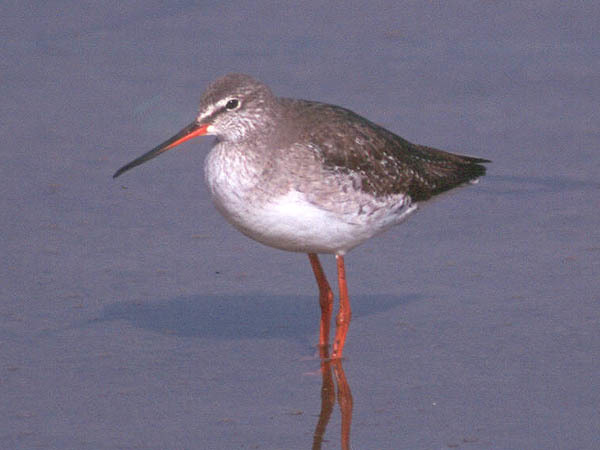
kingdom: Animalia
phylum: Chordata
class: Aves
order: Charadriiformes
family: Scolopacidae
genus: Tringa
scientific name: Tringa erythropus
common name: Spotted redshank
